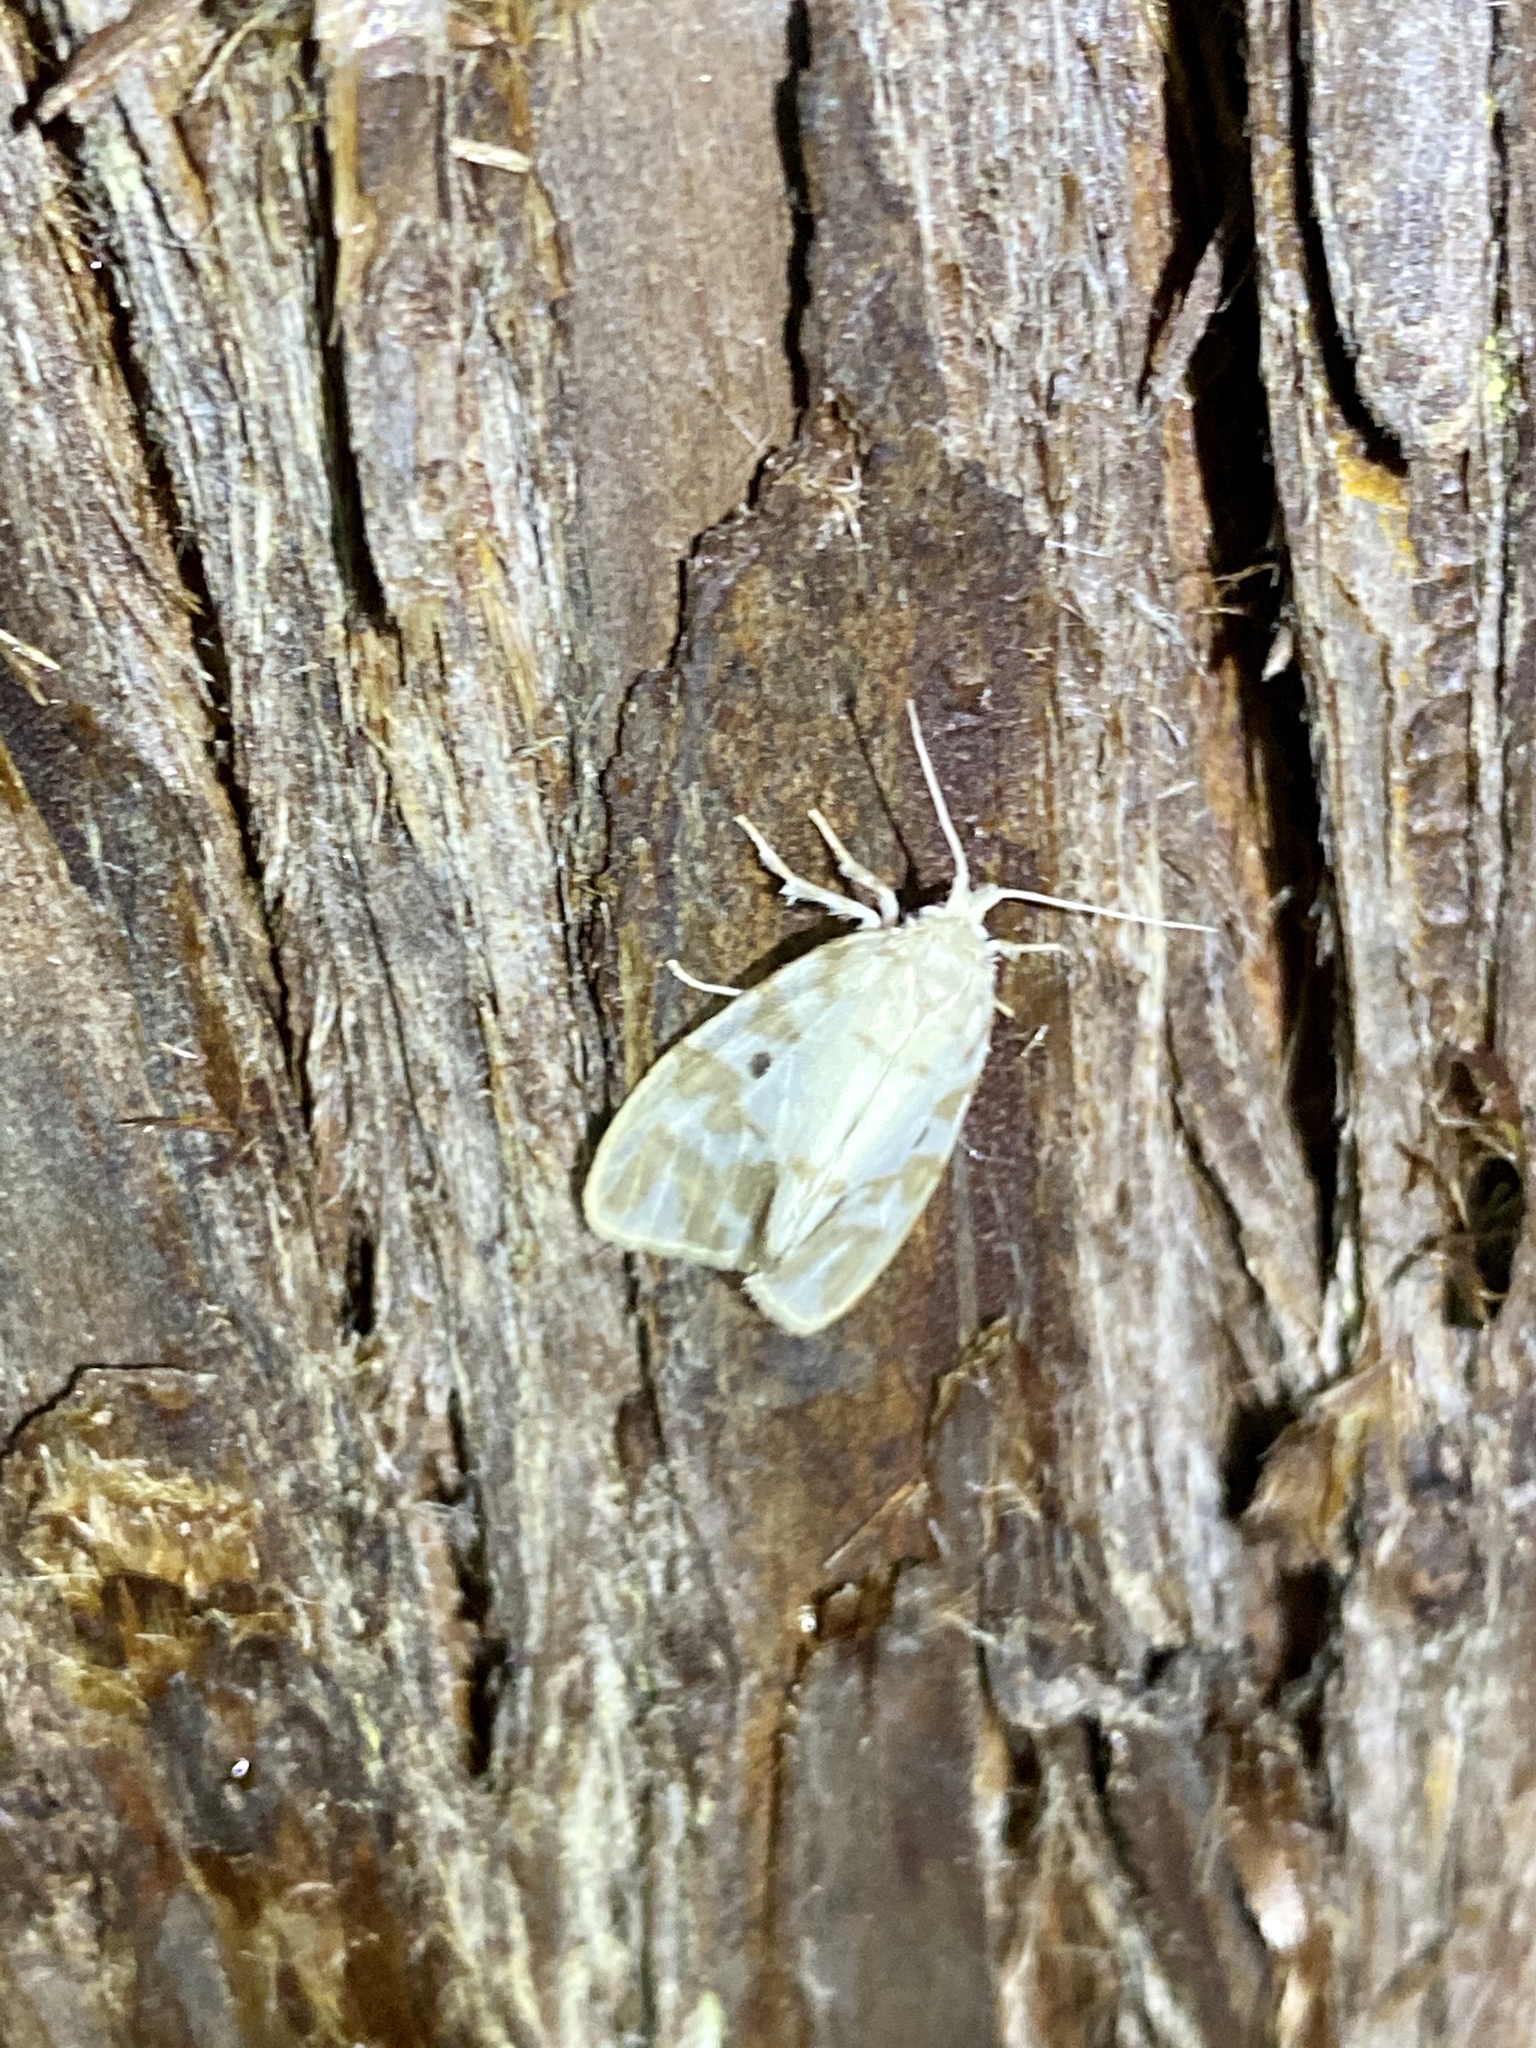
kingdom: Animalia
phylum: Arthropoda
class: Insecta
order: Lepidoptera
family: Erebidae
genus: Nudaria
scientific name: Nudaria ranruna
